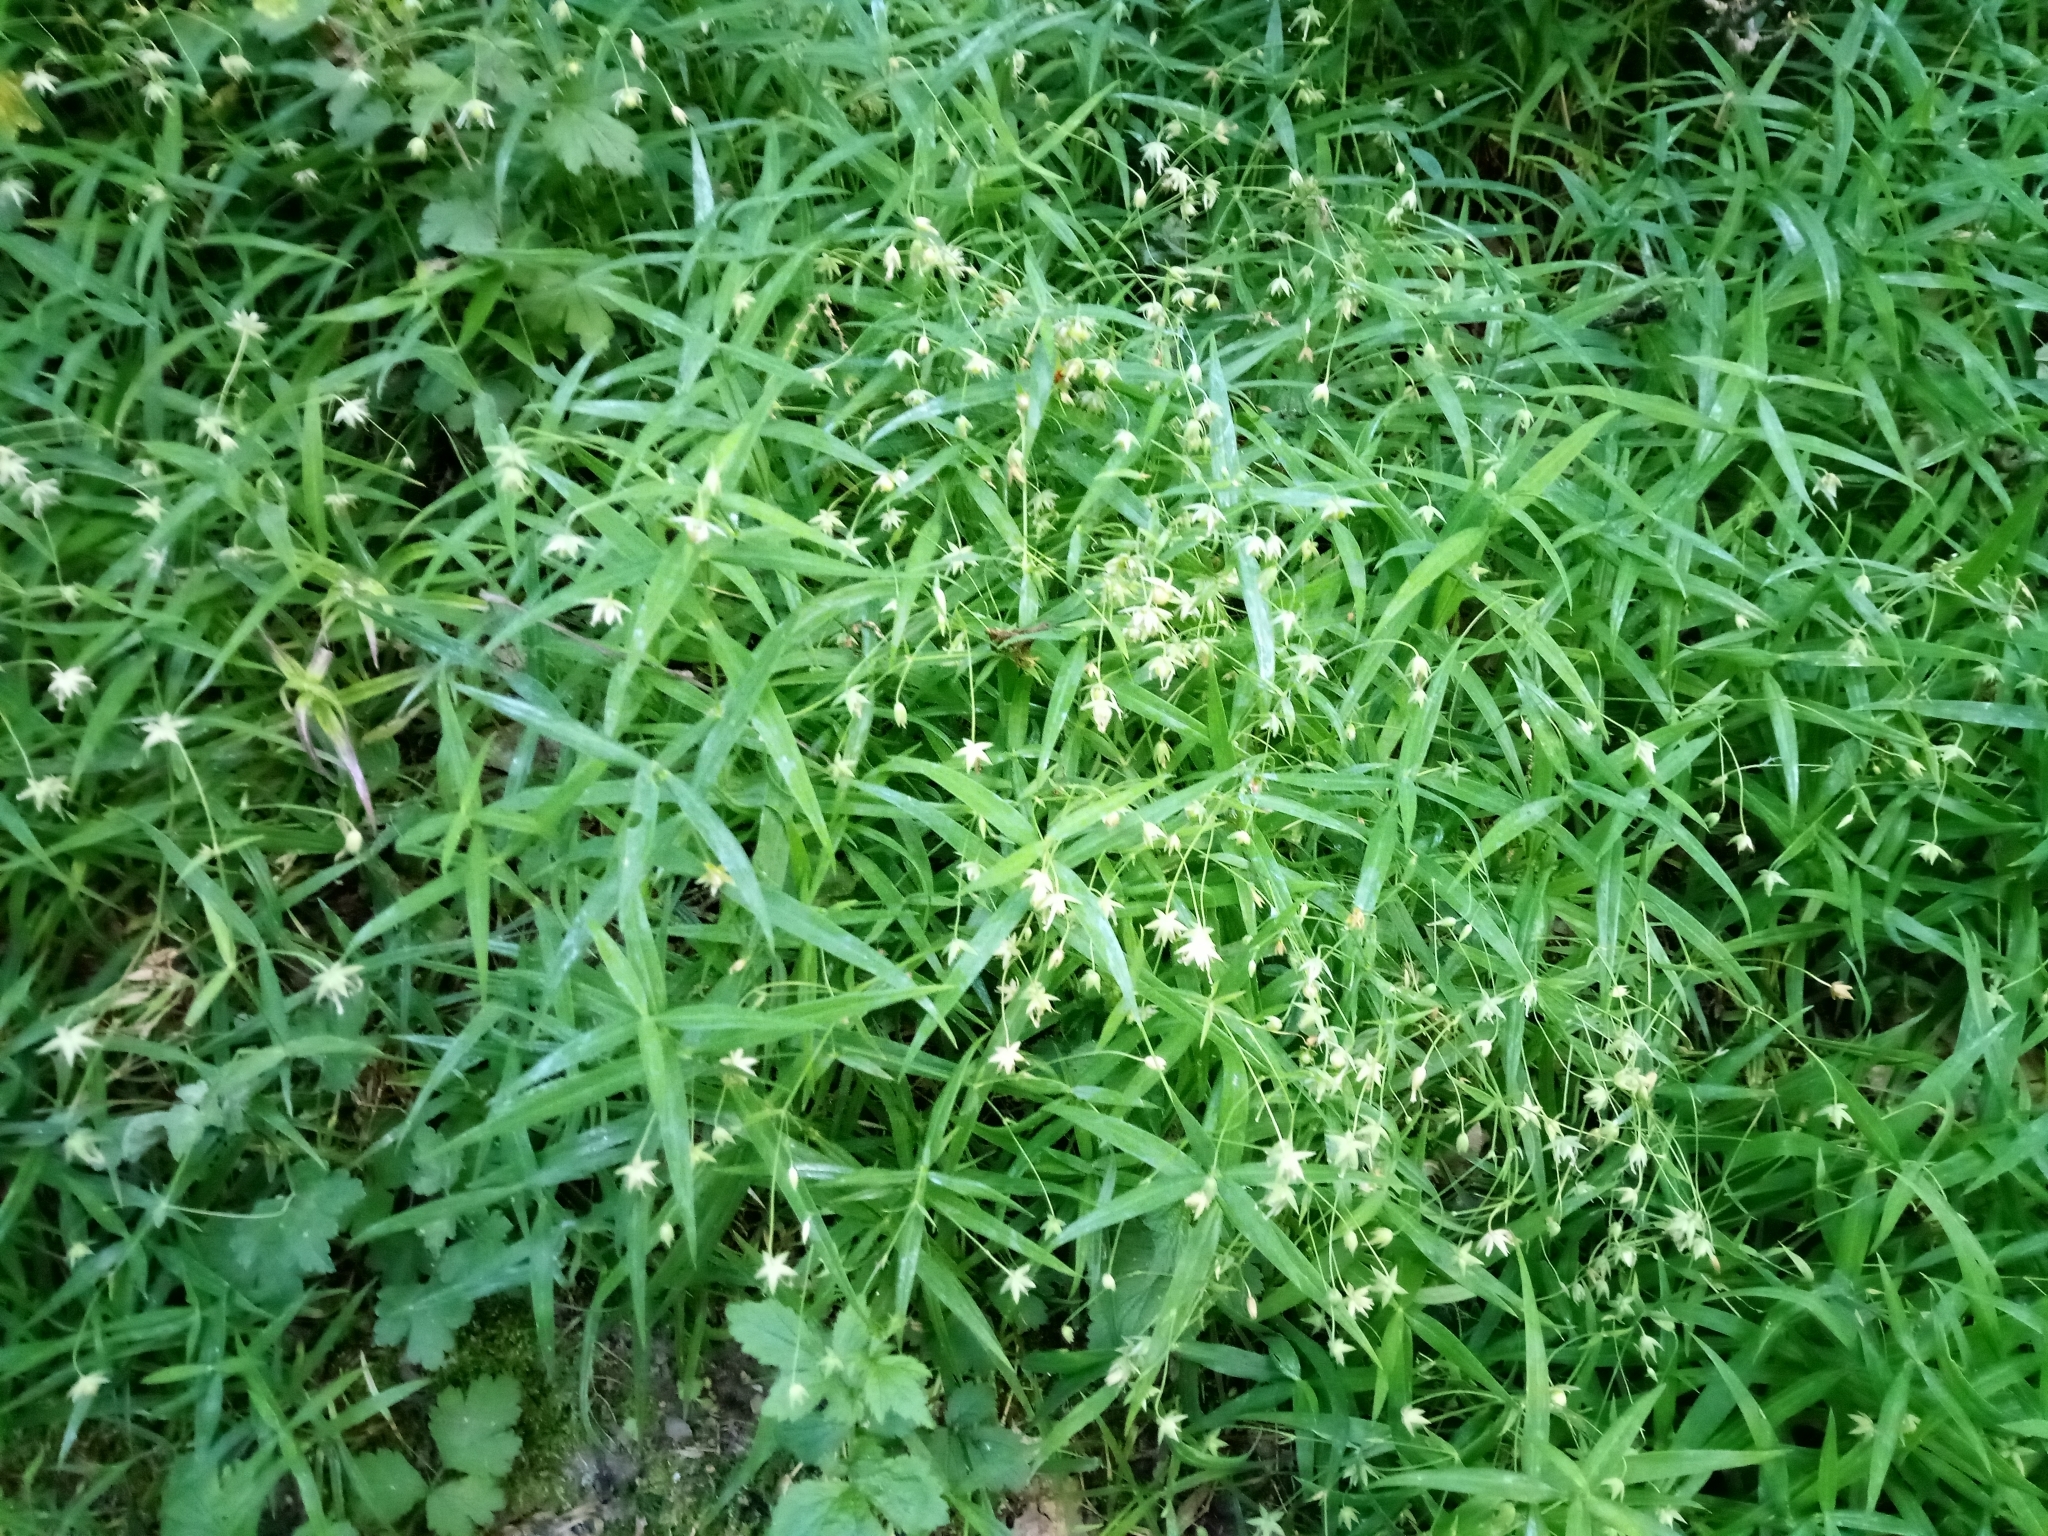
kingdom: Plantae
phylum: Tracheophyta
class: Magnoliopsida
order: Caryophyllales
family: Caryophyllaceae
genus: Rabelera
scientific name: Rabelera holostea
